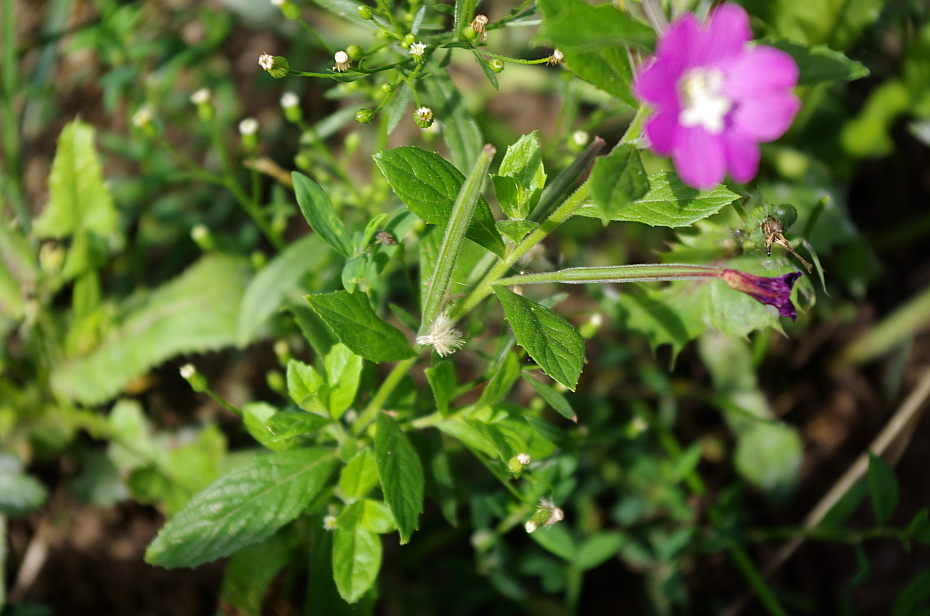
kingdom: Plantae
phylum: Tracheophyta
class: Magnoliopsida
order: Myrtales
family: Onagraceae
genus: Epilobium
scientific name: Epilobium hirsutum
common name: Great willowherb
